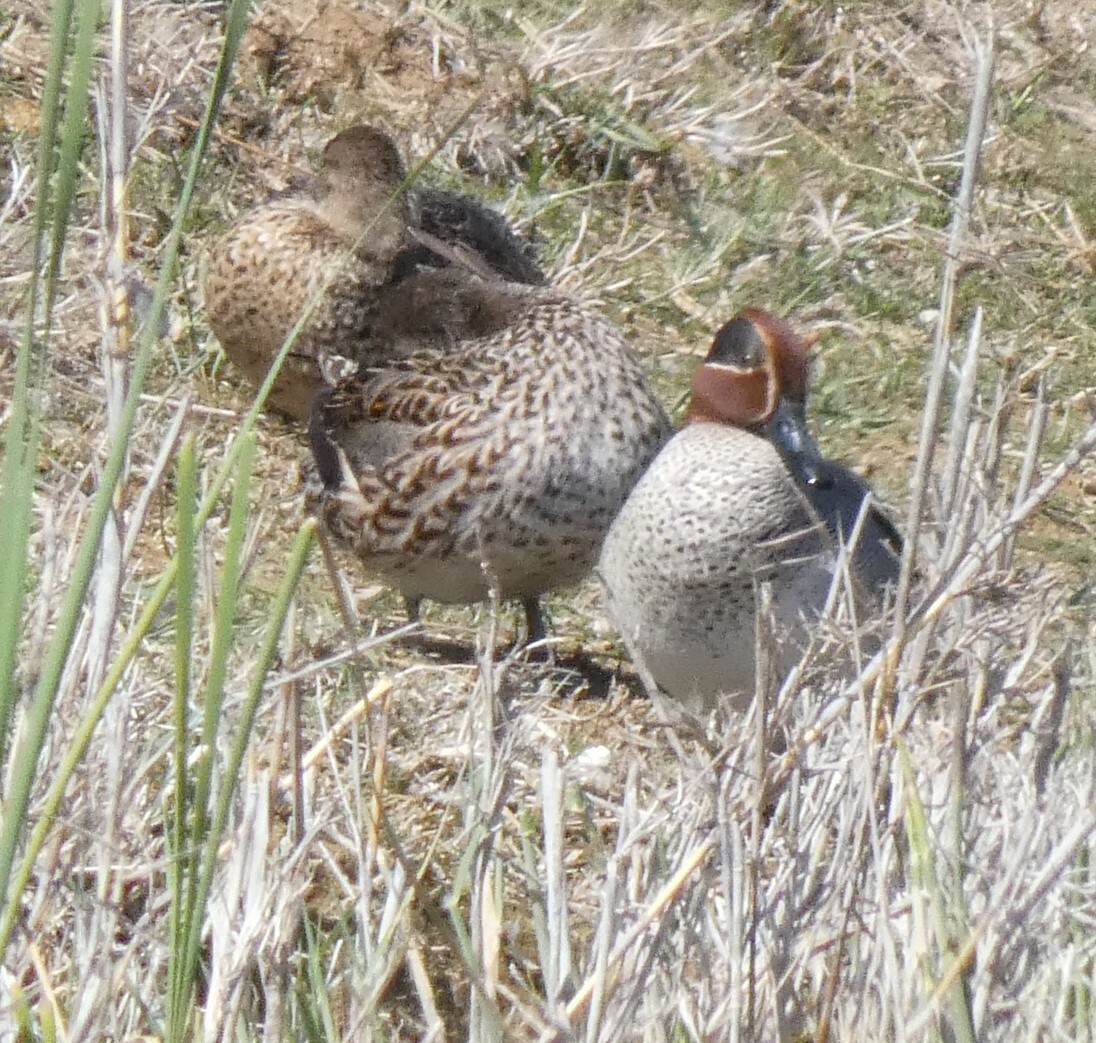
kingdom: Animalia
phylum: Chordata
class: Aves
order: Anseriformes
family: Anatidae
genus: Anas
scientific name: Anas crecca
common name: Eurasian teal
